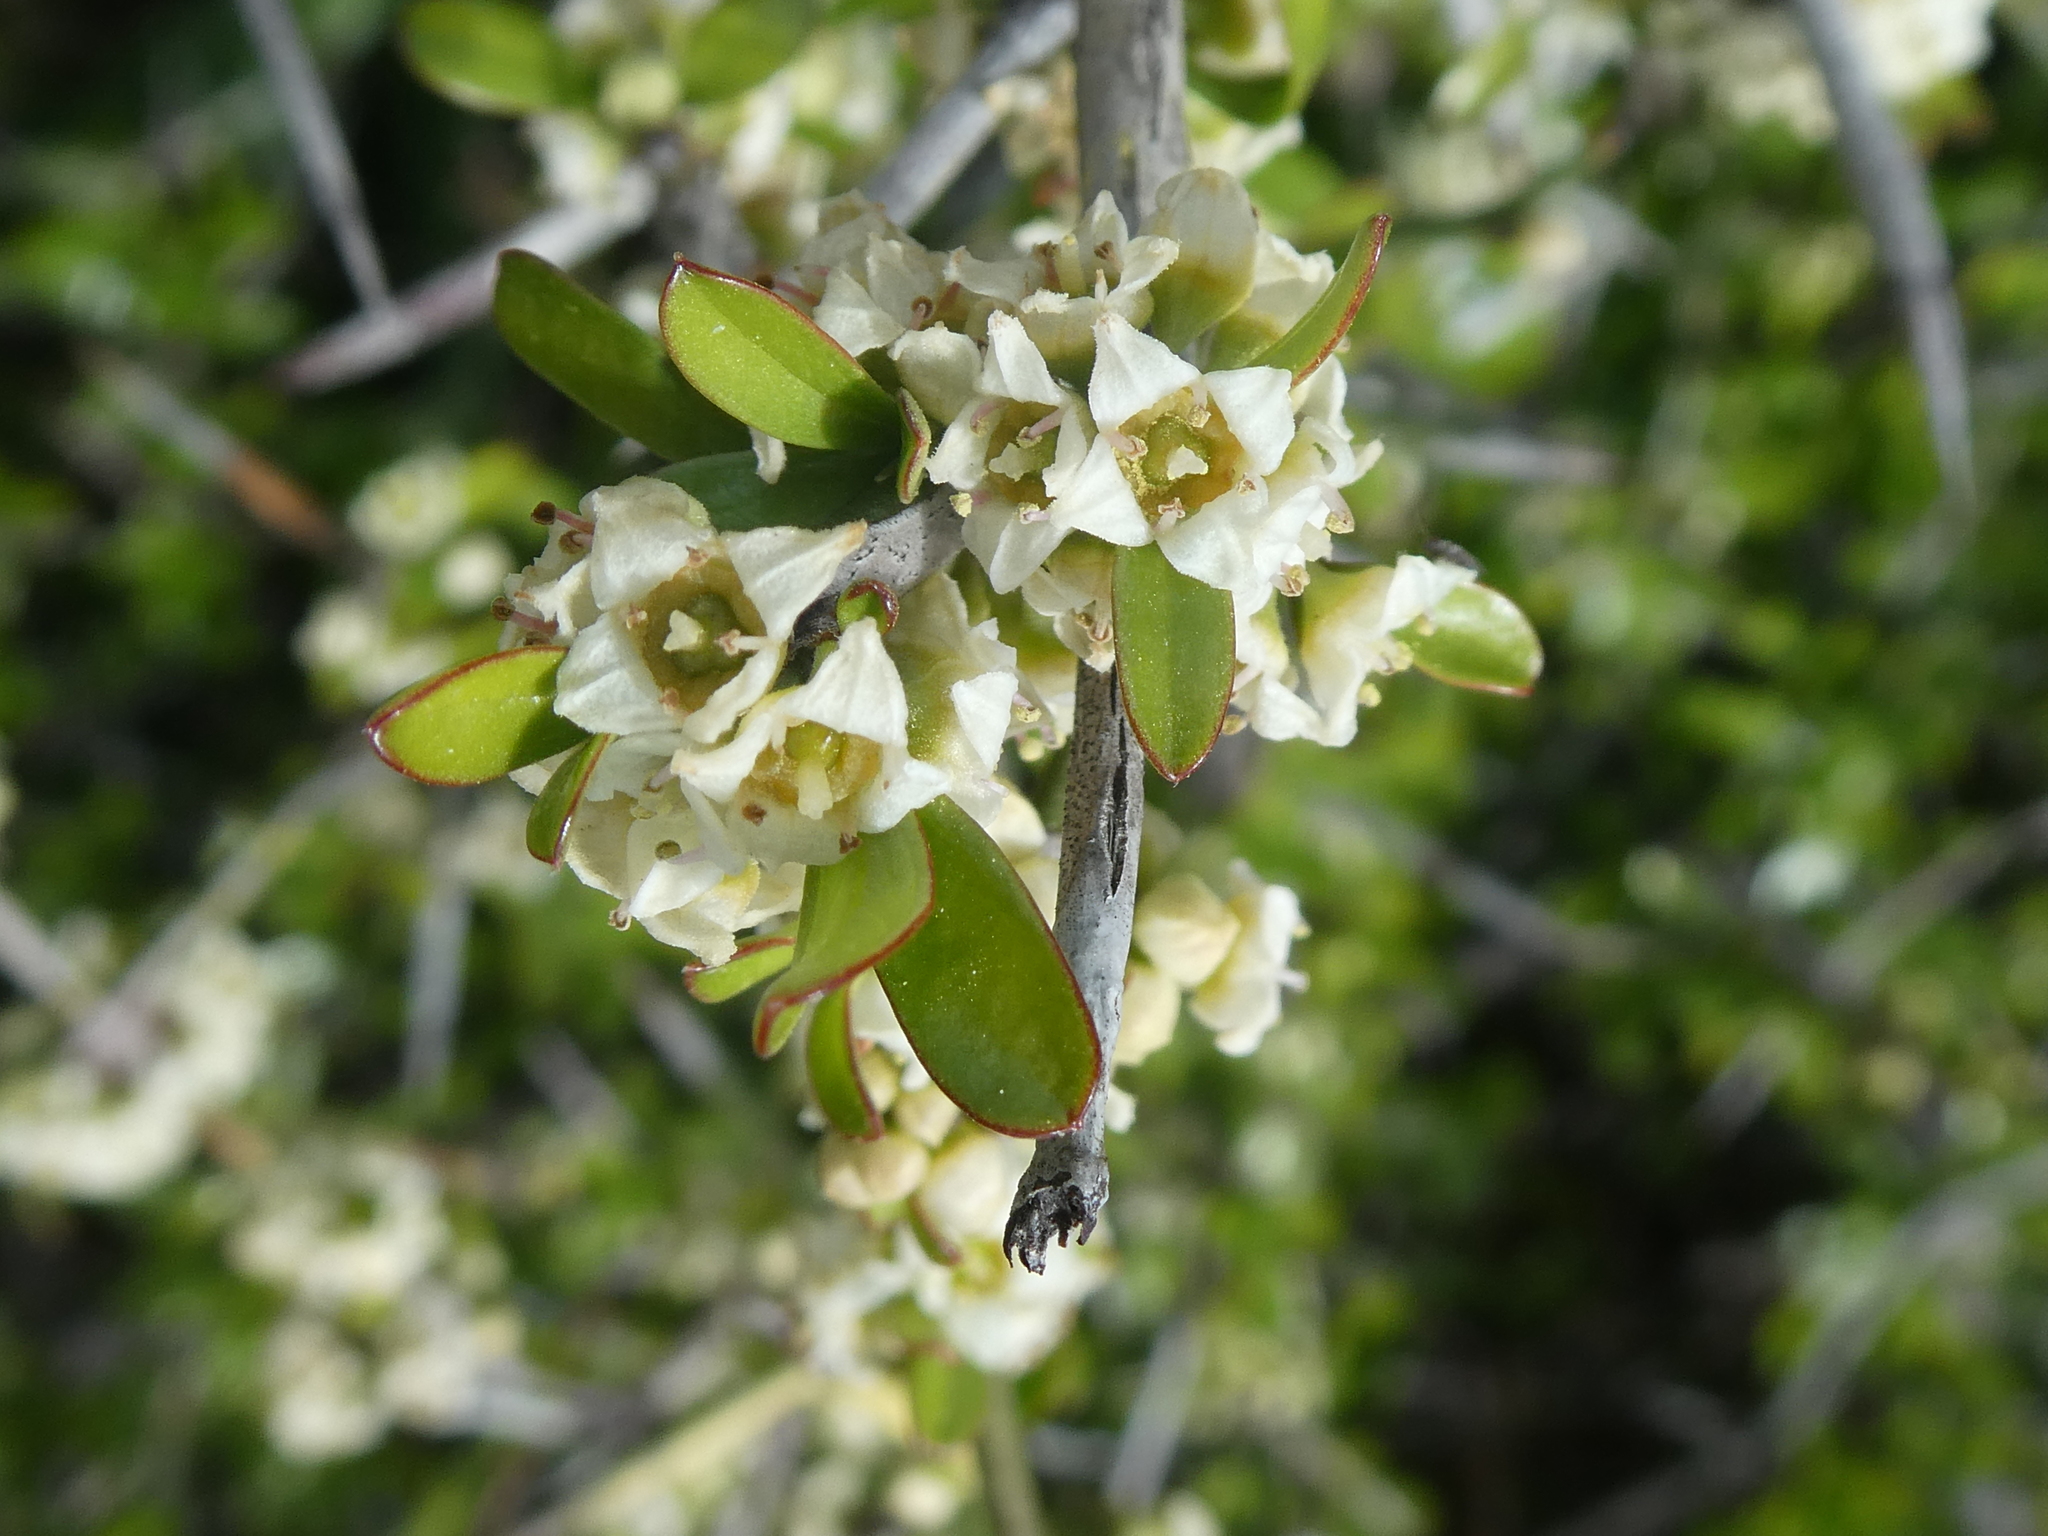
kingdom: Plantae
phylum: Tracheophyta
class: Magnoliopsida
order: Rosales
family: Rhamnaceae
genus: Discaria
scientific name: Discaria toumatou
